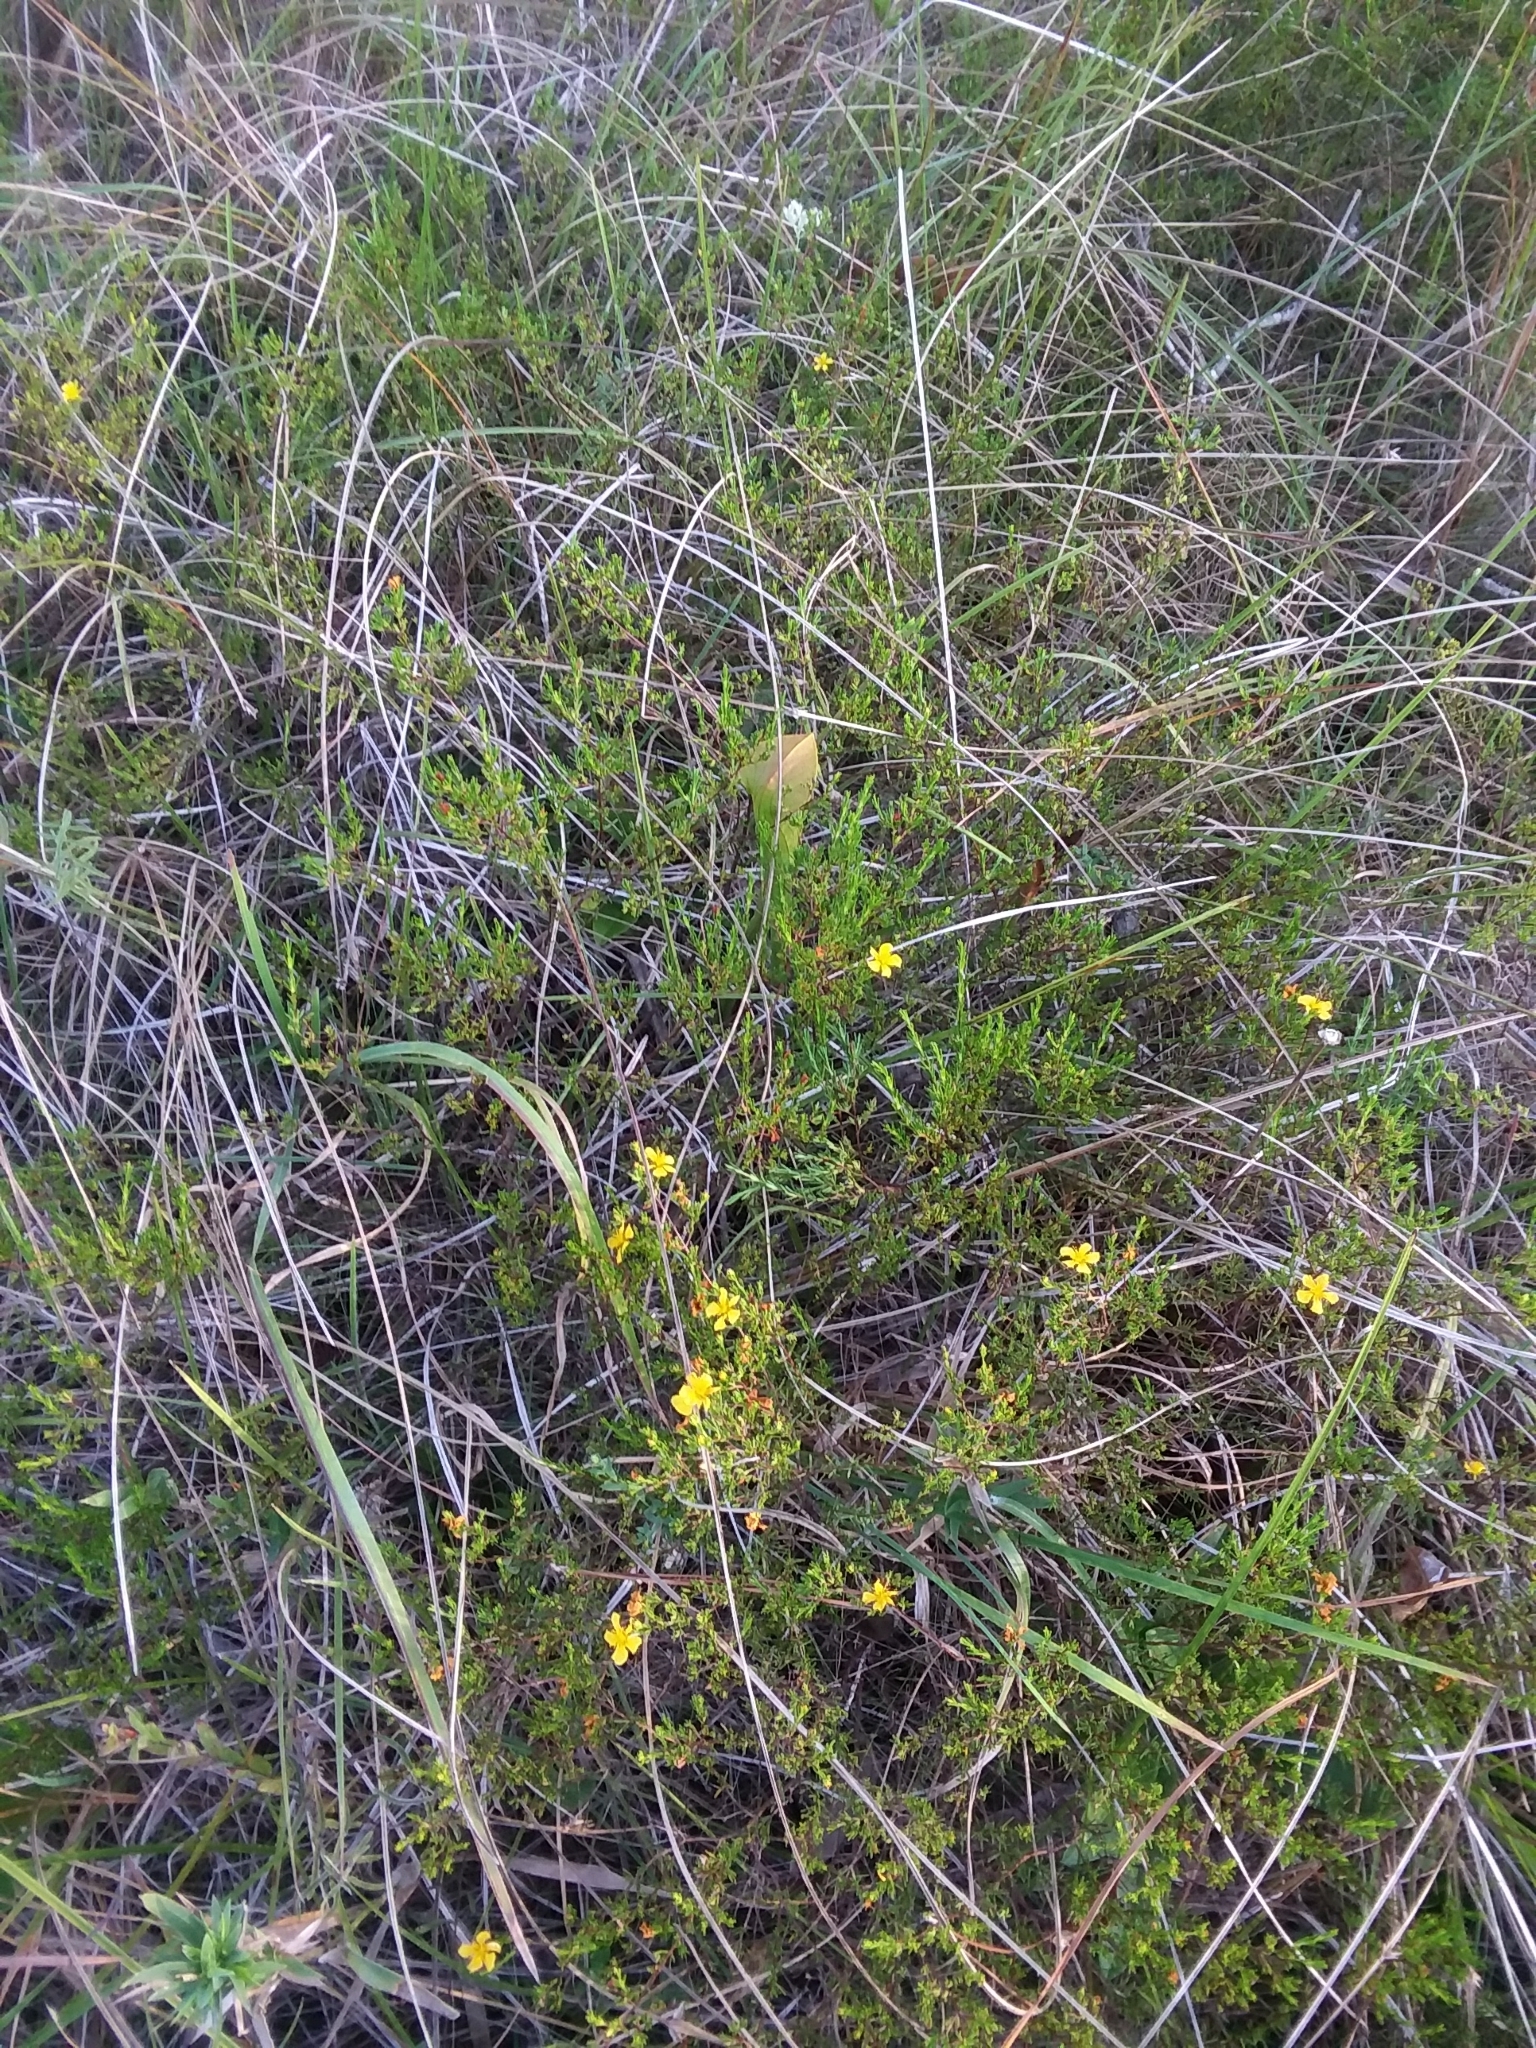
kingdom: Plantae
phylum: Tracheophyta
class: Magnoliopsida
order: Malpighiales
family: Hypericaceae
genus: Hypericum
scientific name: Hypericum brachyphyllum
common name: Coastal plain st. john's-wort
